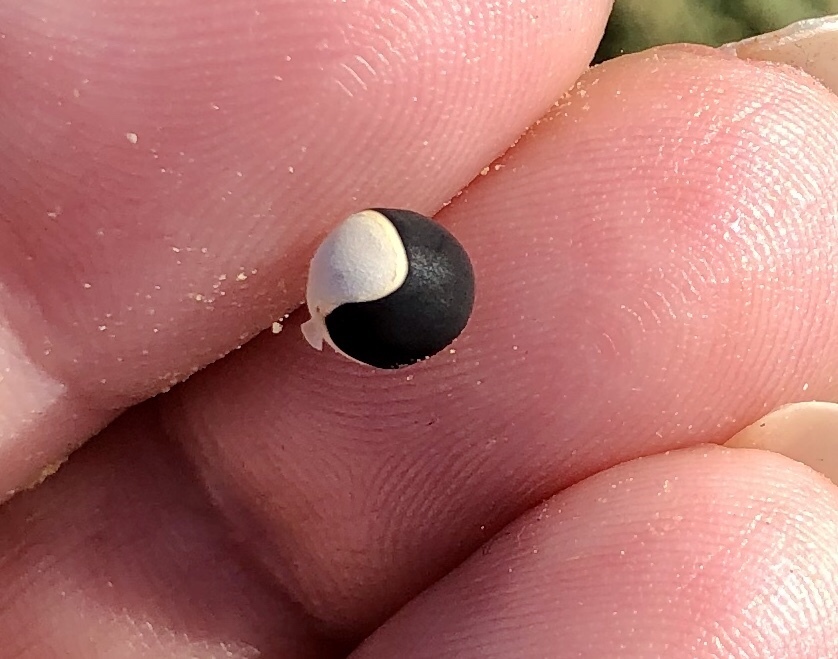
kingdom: Plantae
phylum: Tracheophyta
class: Magnoliopsida
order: Sapindales
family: Sapindaceae
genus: Cardiospermum
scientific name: Cardiospermum halicacabum
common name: Balloon vine
